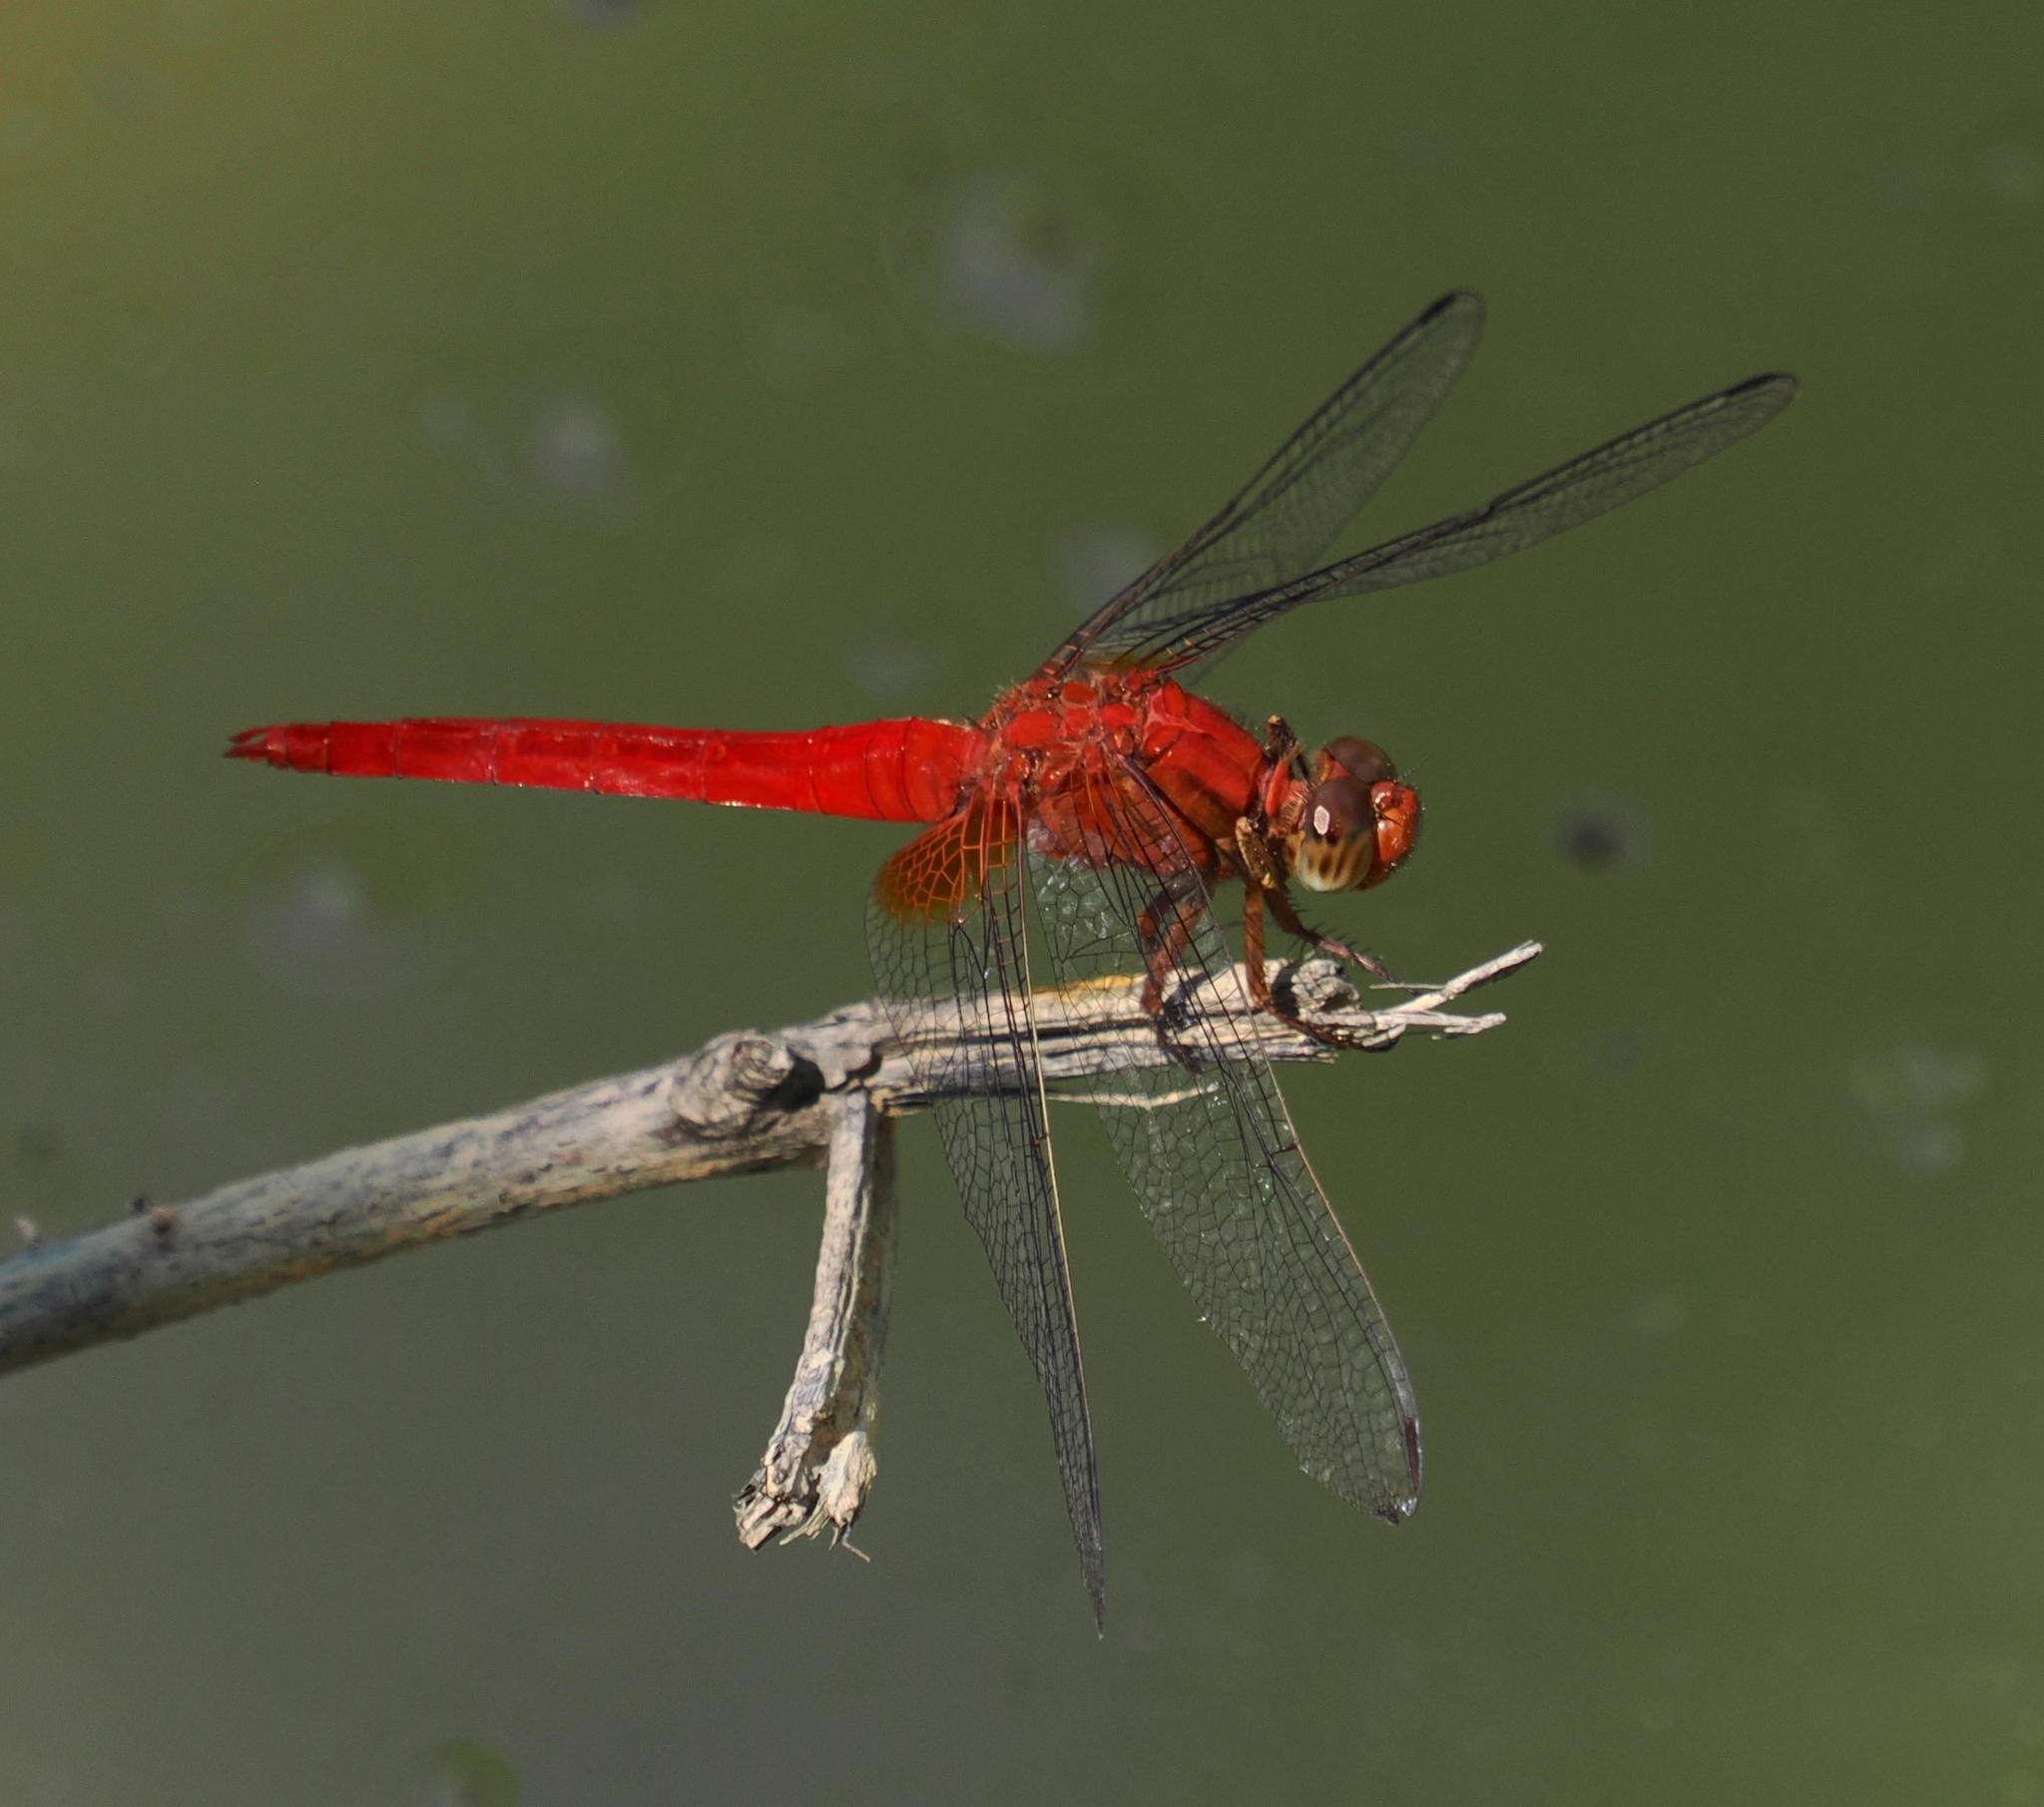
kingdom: Animalia
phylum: Arthropoda
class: Insecta
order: Odonata
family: Libellulidae
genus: Orthetrum
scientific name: Orthetrum testaceum
